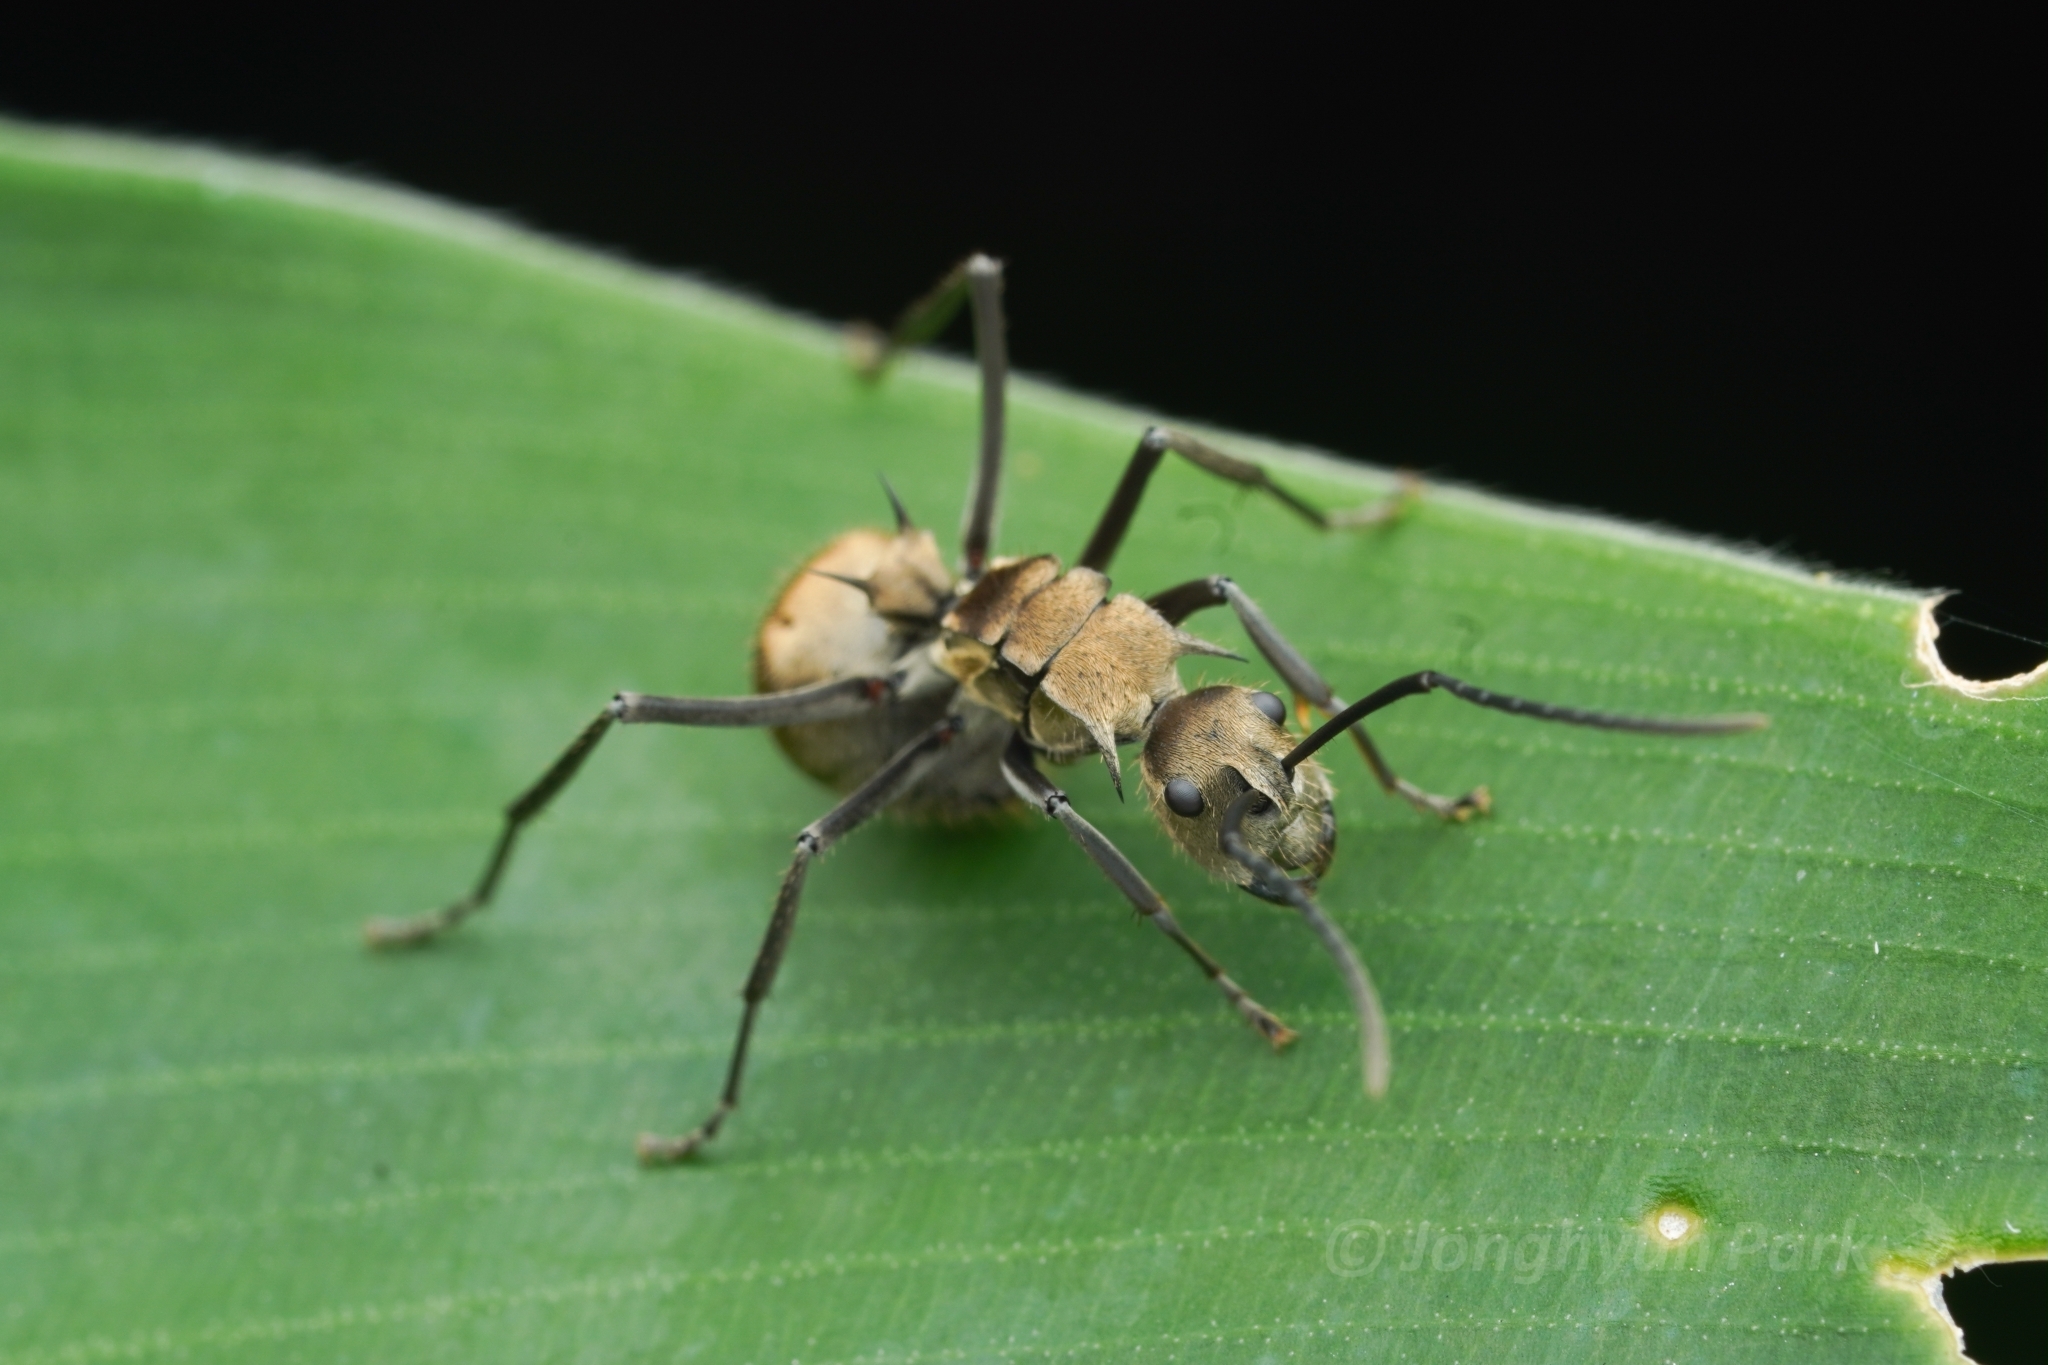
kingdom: Animalia
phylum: Arthropoda
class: Insecta
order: Hymenoptera
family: Formicidae
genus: Polyrhachis
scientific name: Polyrhachis proxima
